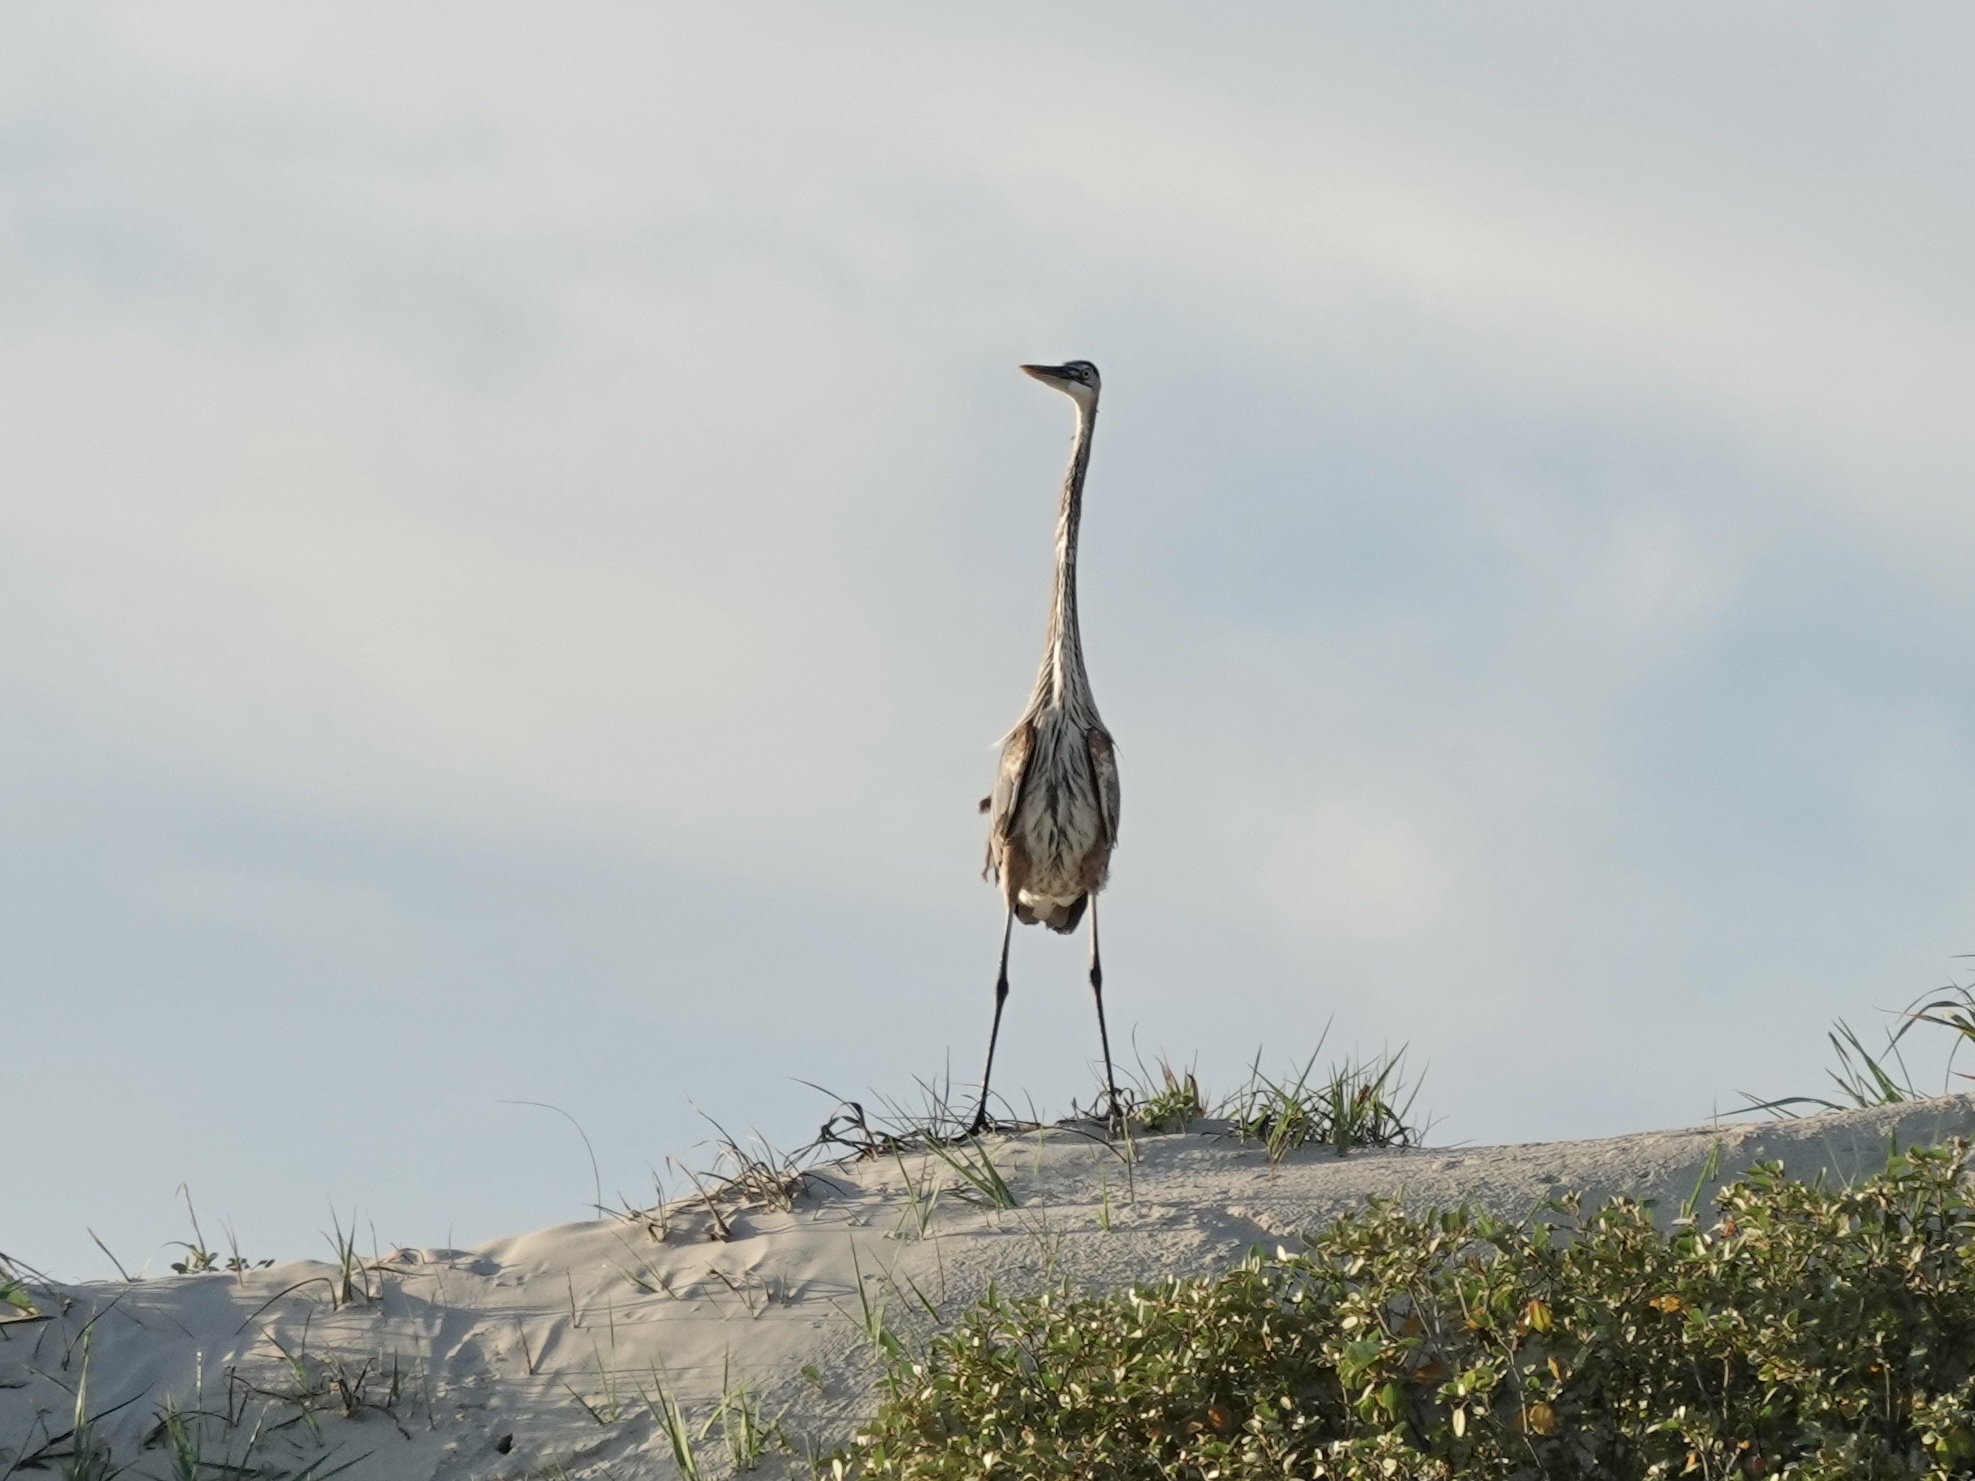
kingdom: Animalia
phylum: Chordata
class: Aves
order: Pelecaniformes
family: Ardeidae
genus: Ardea
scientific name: Ardea herodias
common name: Great blue heron
